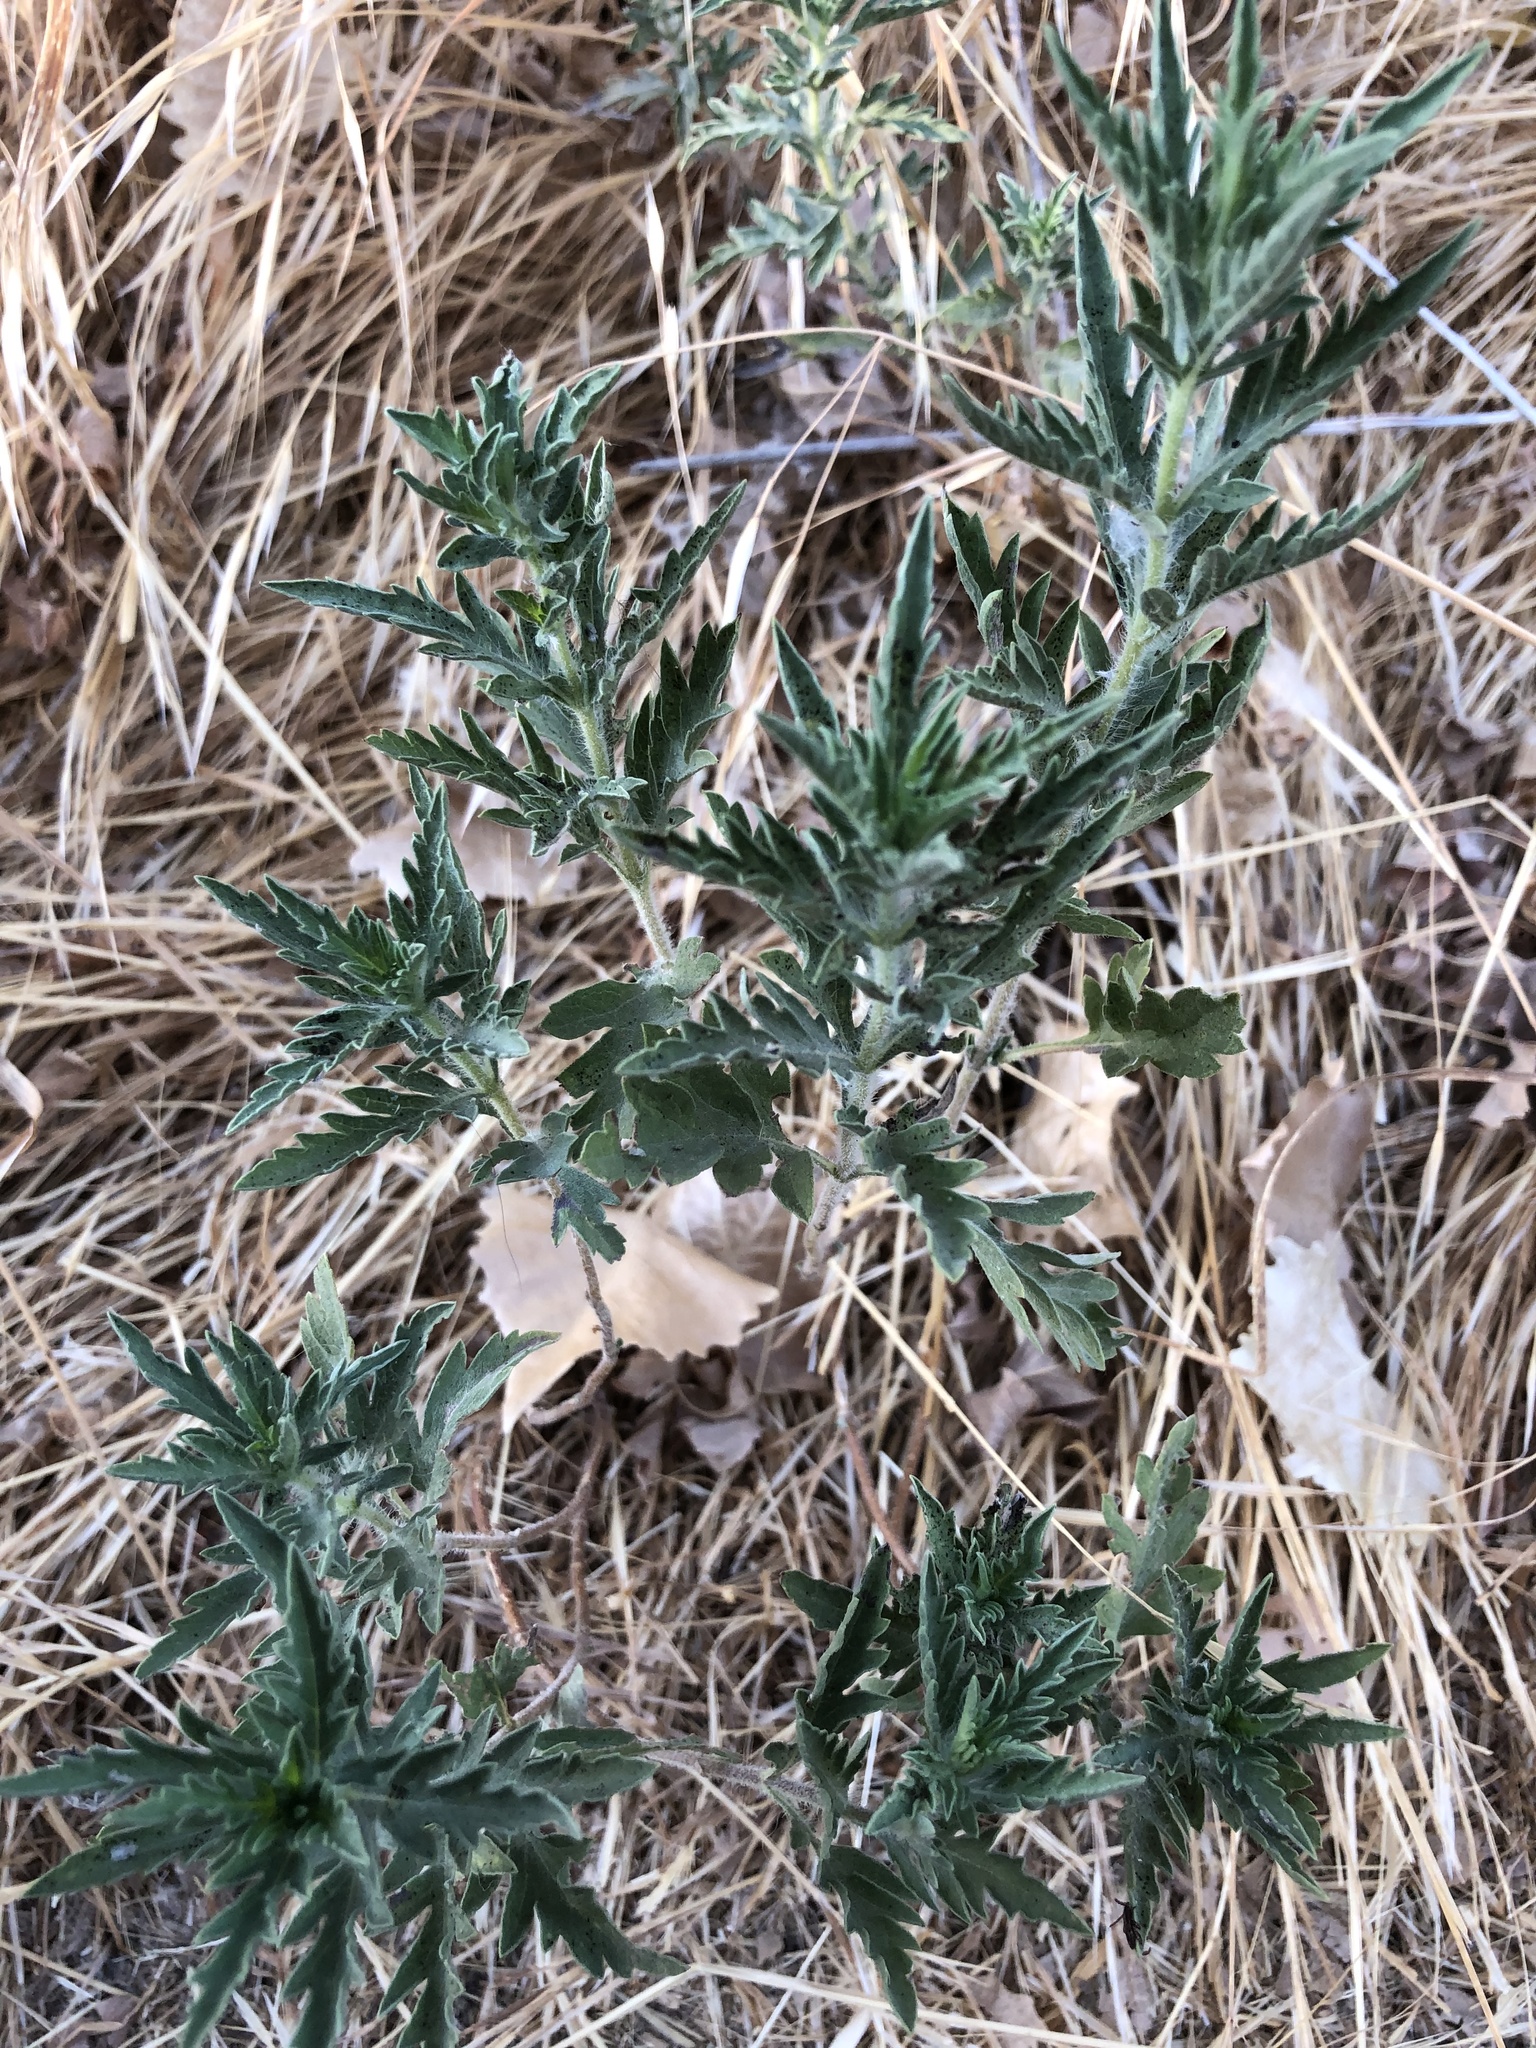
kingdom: Plantae
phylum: Tracheophyta
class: Magnoliopsida
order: Asterales
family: Asteraceae
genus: Ambrosia
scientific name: Ambrosia psilostachya
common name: Perennial ragweed
